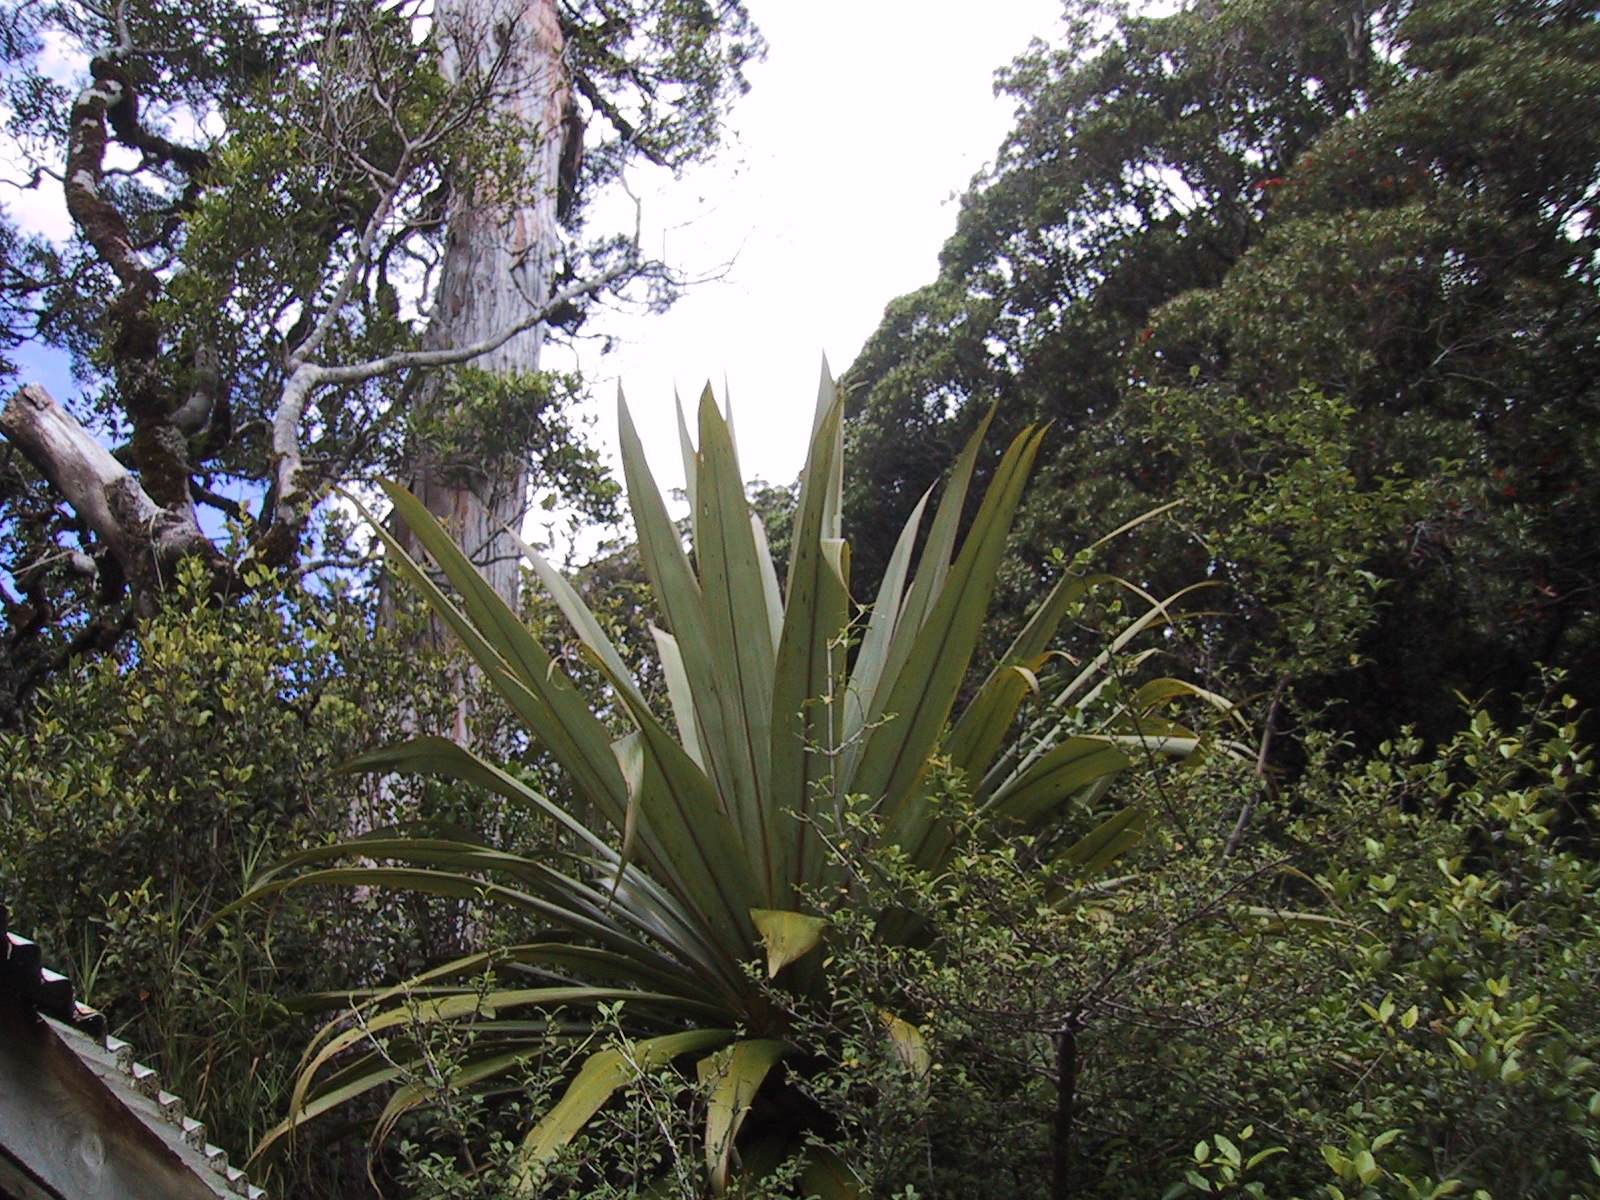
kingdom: Plantae
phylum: Tracheophyta
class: Liliopsida
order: Asparagales
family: Asparagaceae
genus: Cordyline
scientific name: Cordyline indivisa
